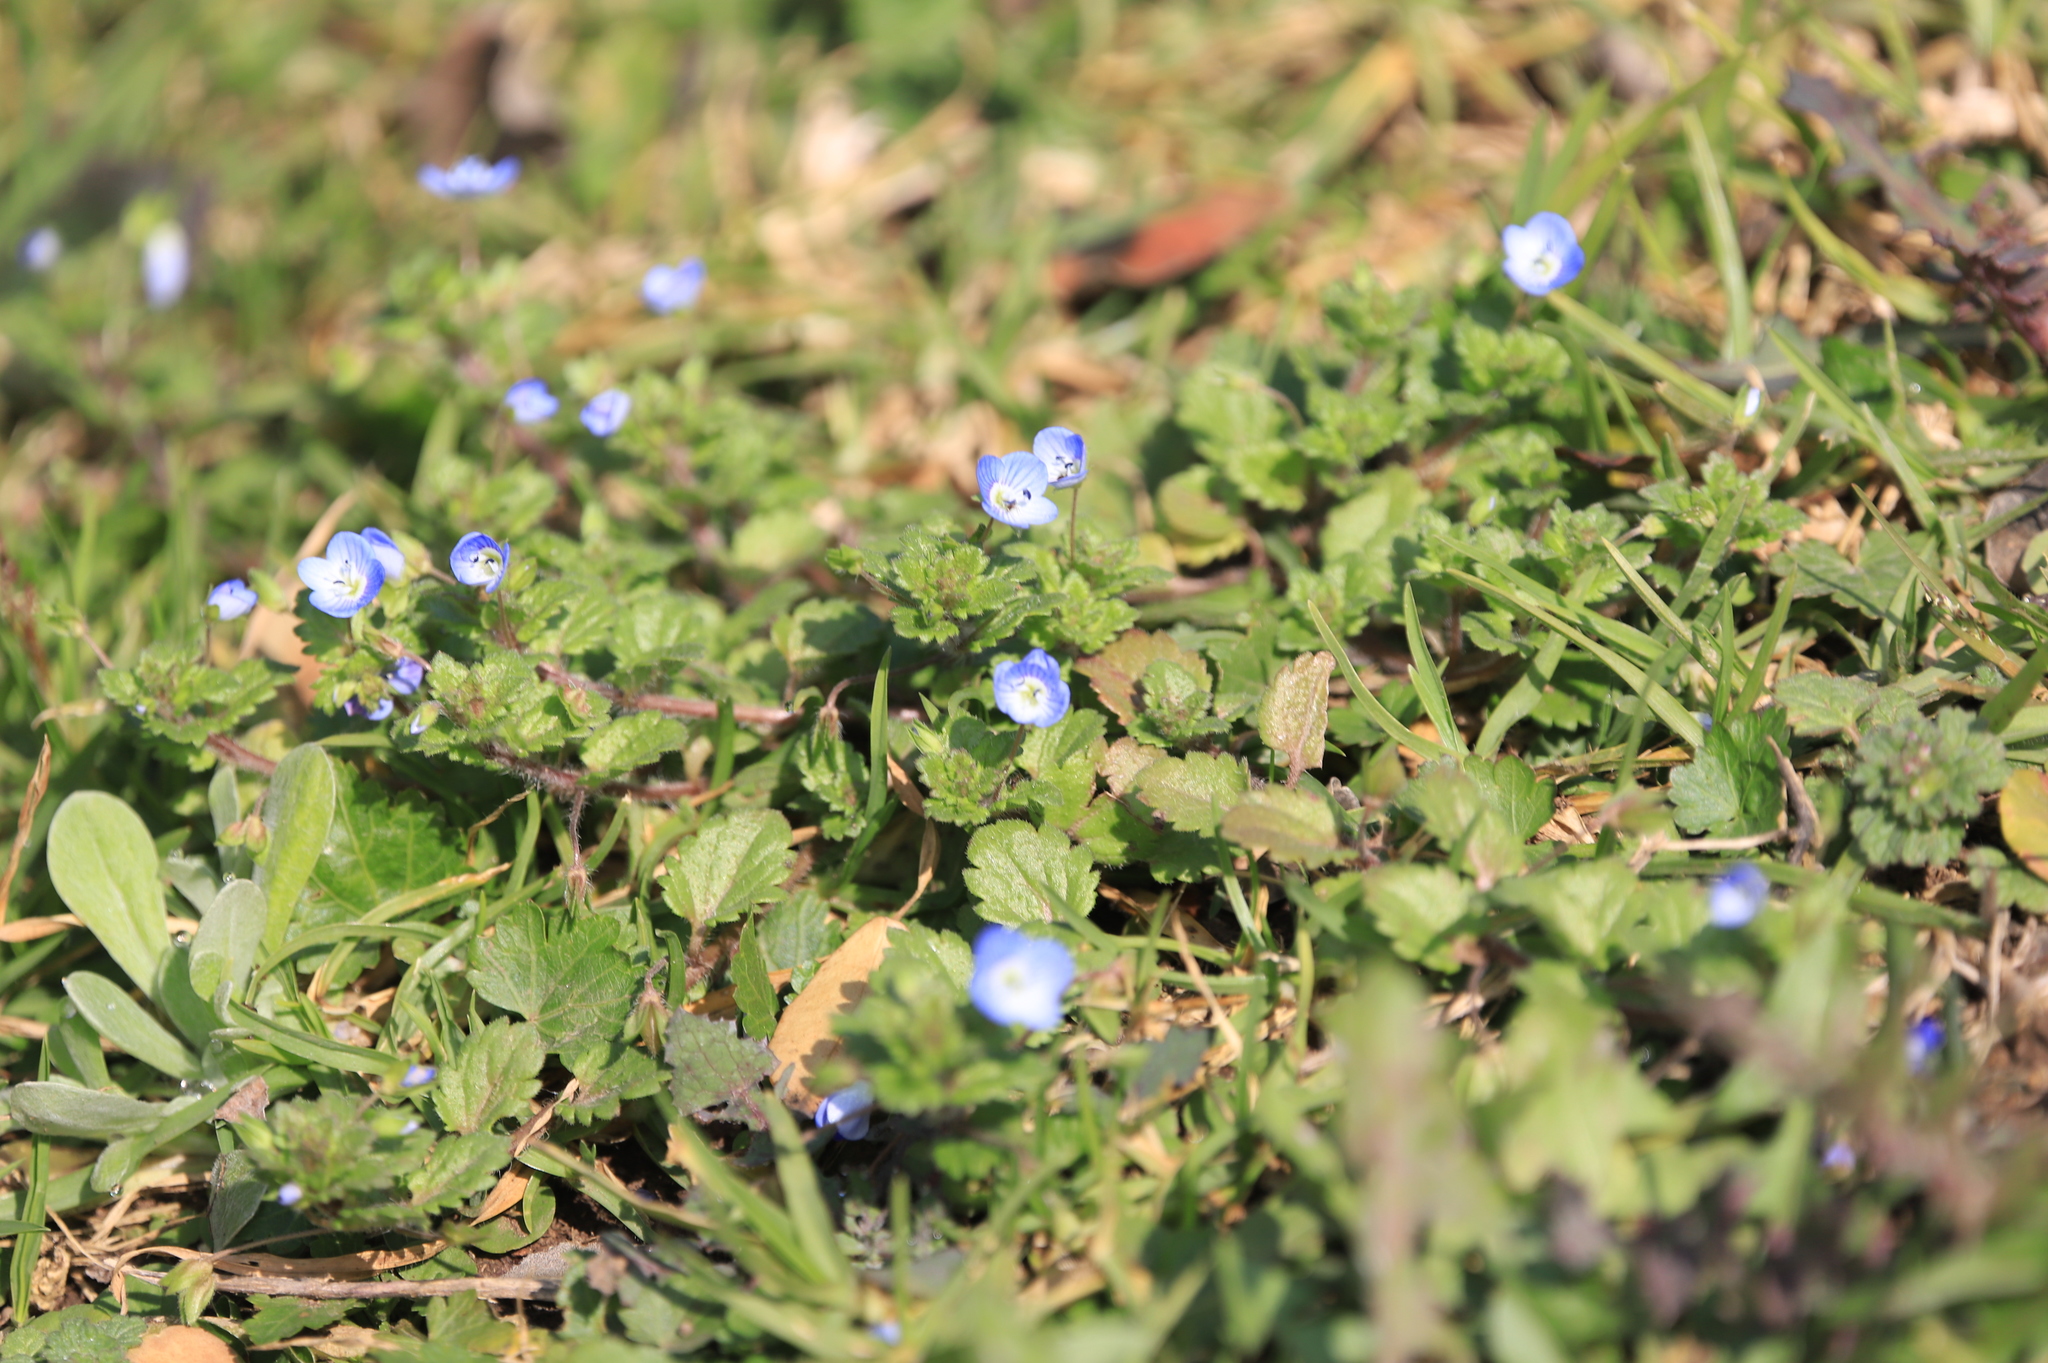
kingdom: Plantae
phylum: Tracheophyta
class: Magnoliopsida
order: Lamiales
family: Plantaginaceae
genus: Veronica
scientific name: Veronica persica
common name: Common field-speedwell
